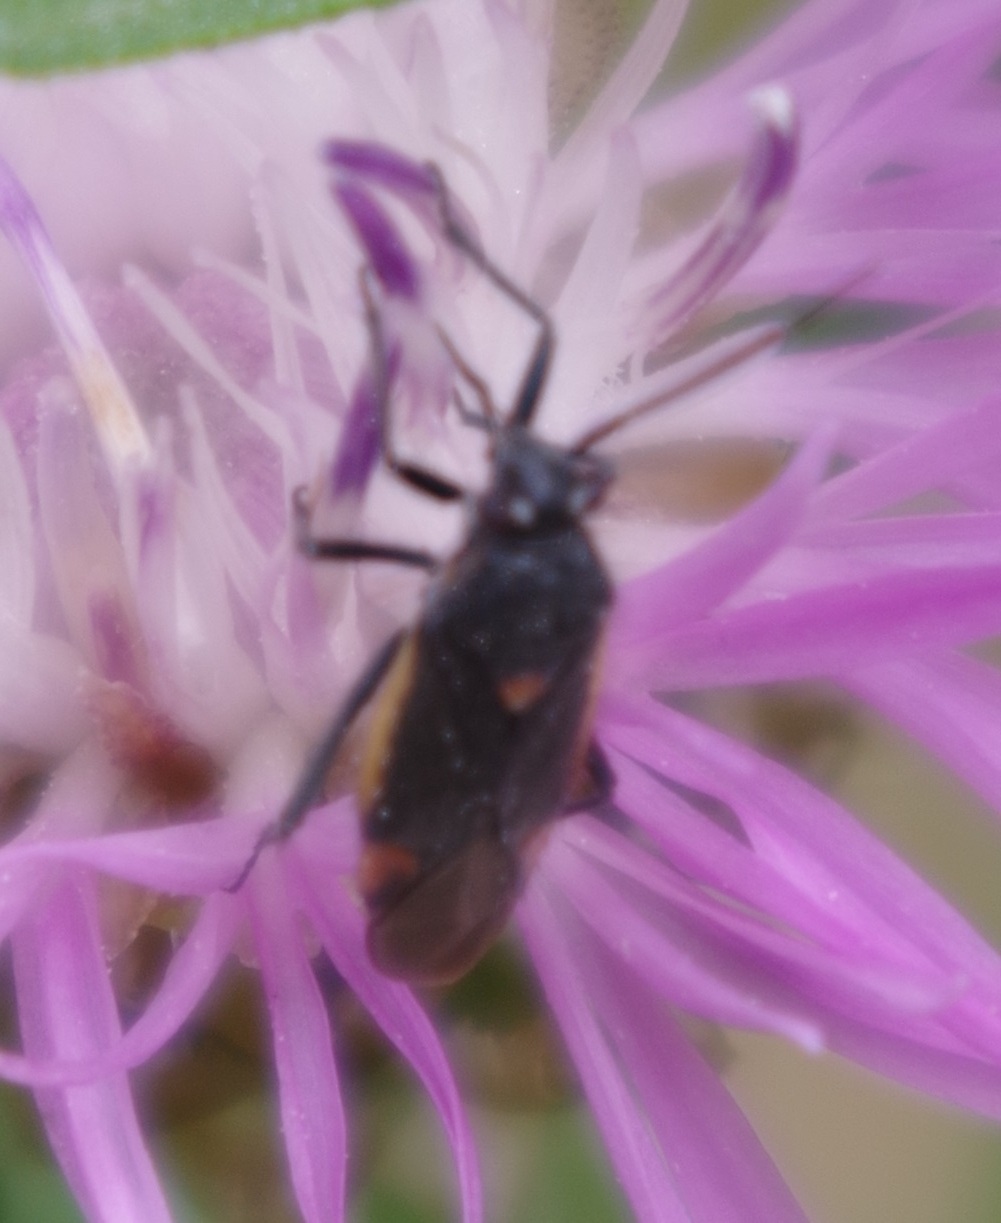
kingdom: Animalia
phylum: Arthropoda
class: Insecta
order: Hemiptera
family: Miridae
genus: Capsodes
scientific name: Capsodes gothicus
